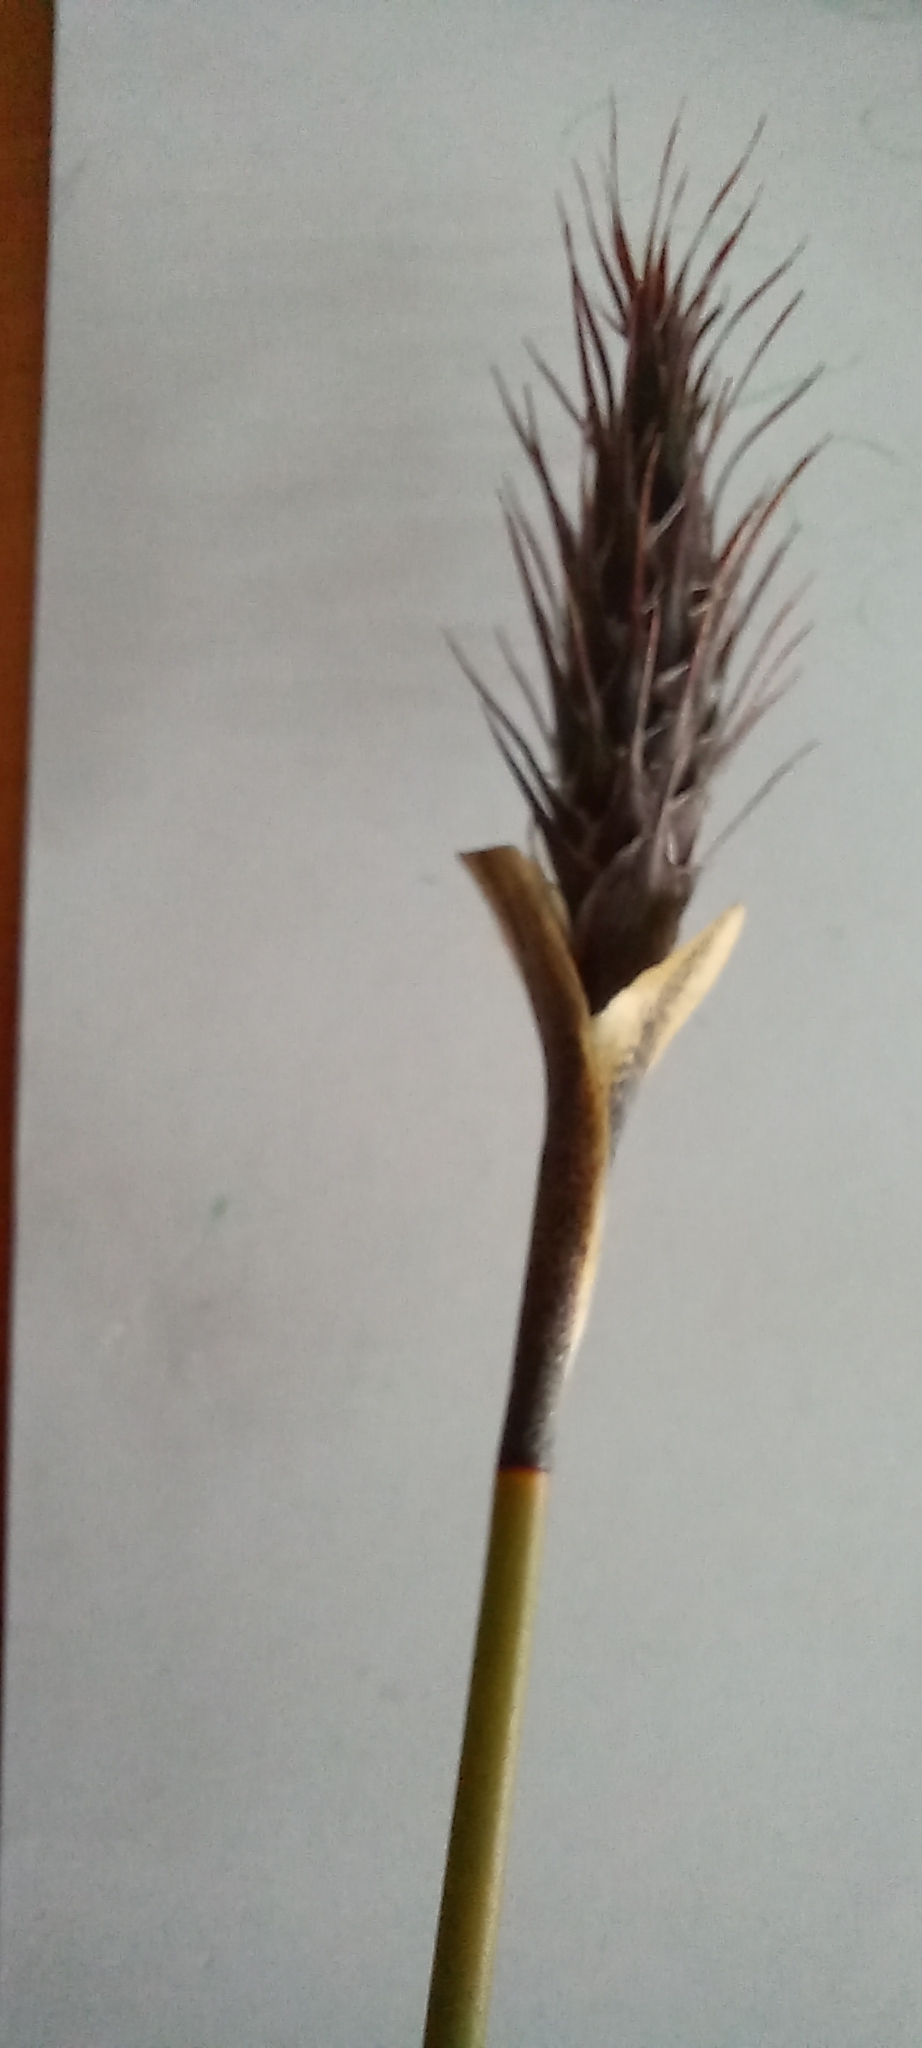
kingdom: Plantae
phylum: Tracheophyta
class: Liliopsida
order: Poales
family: Restionaceae
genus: Hypodiscus
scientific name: Hypodiscus aristatus
